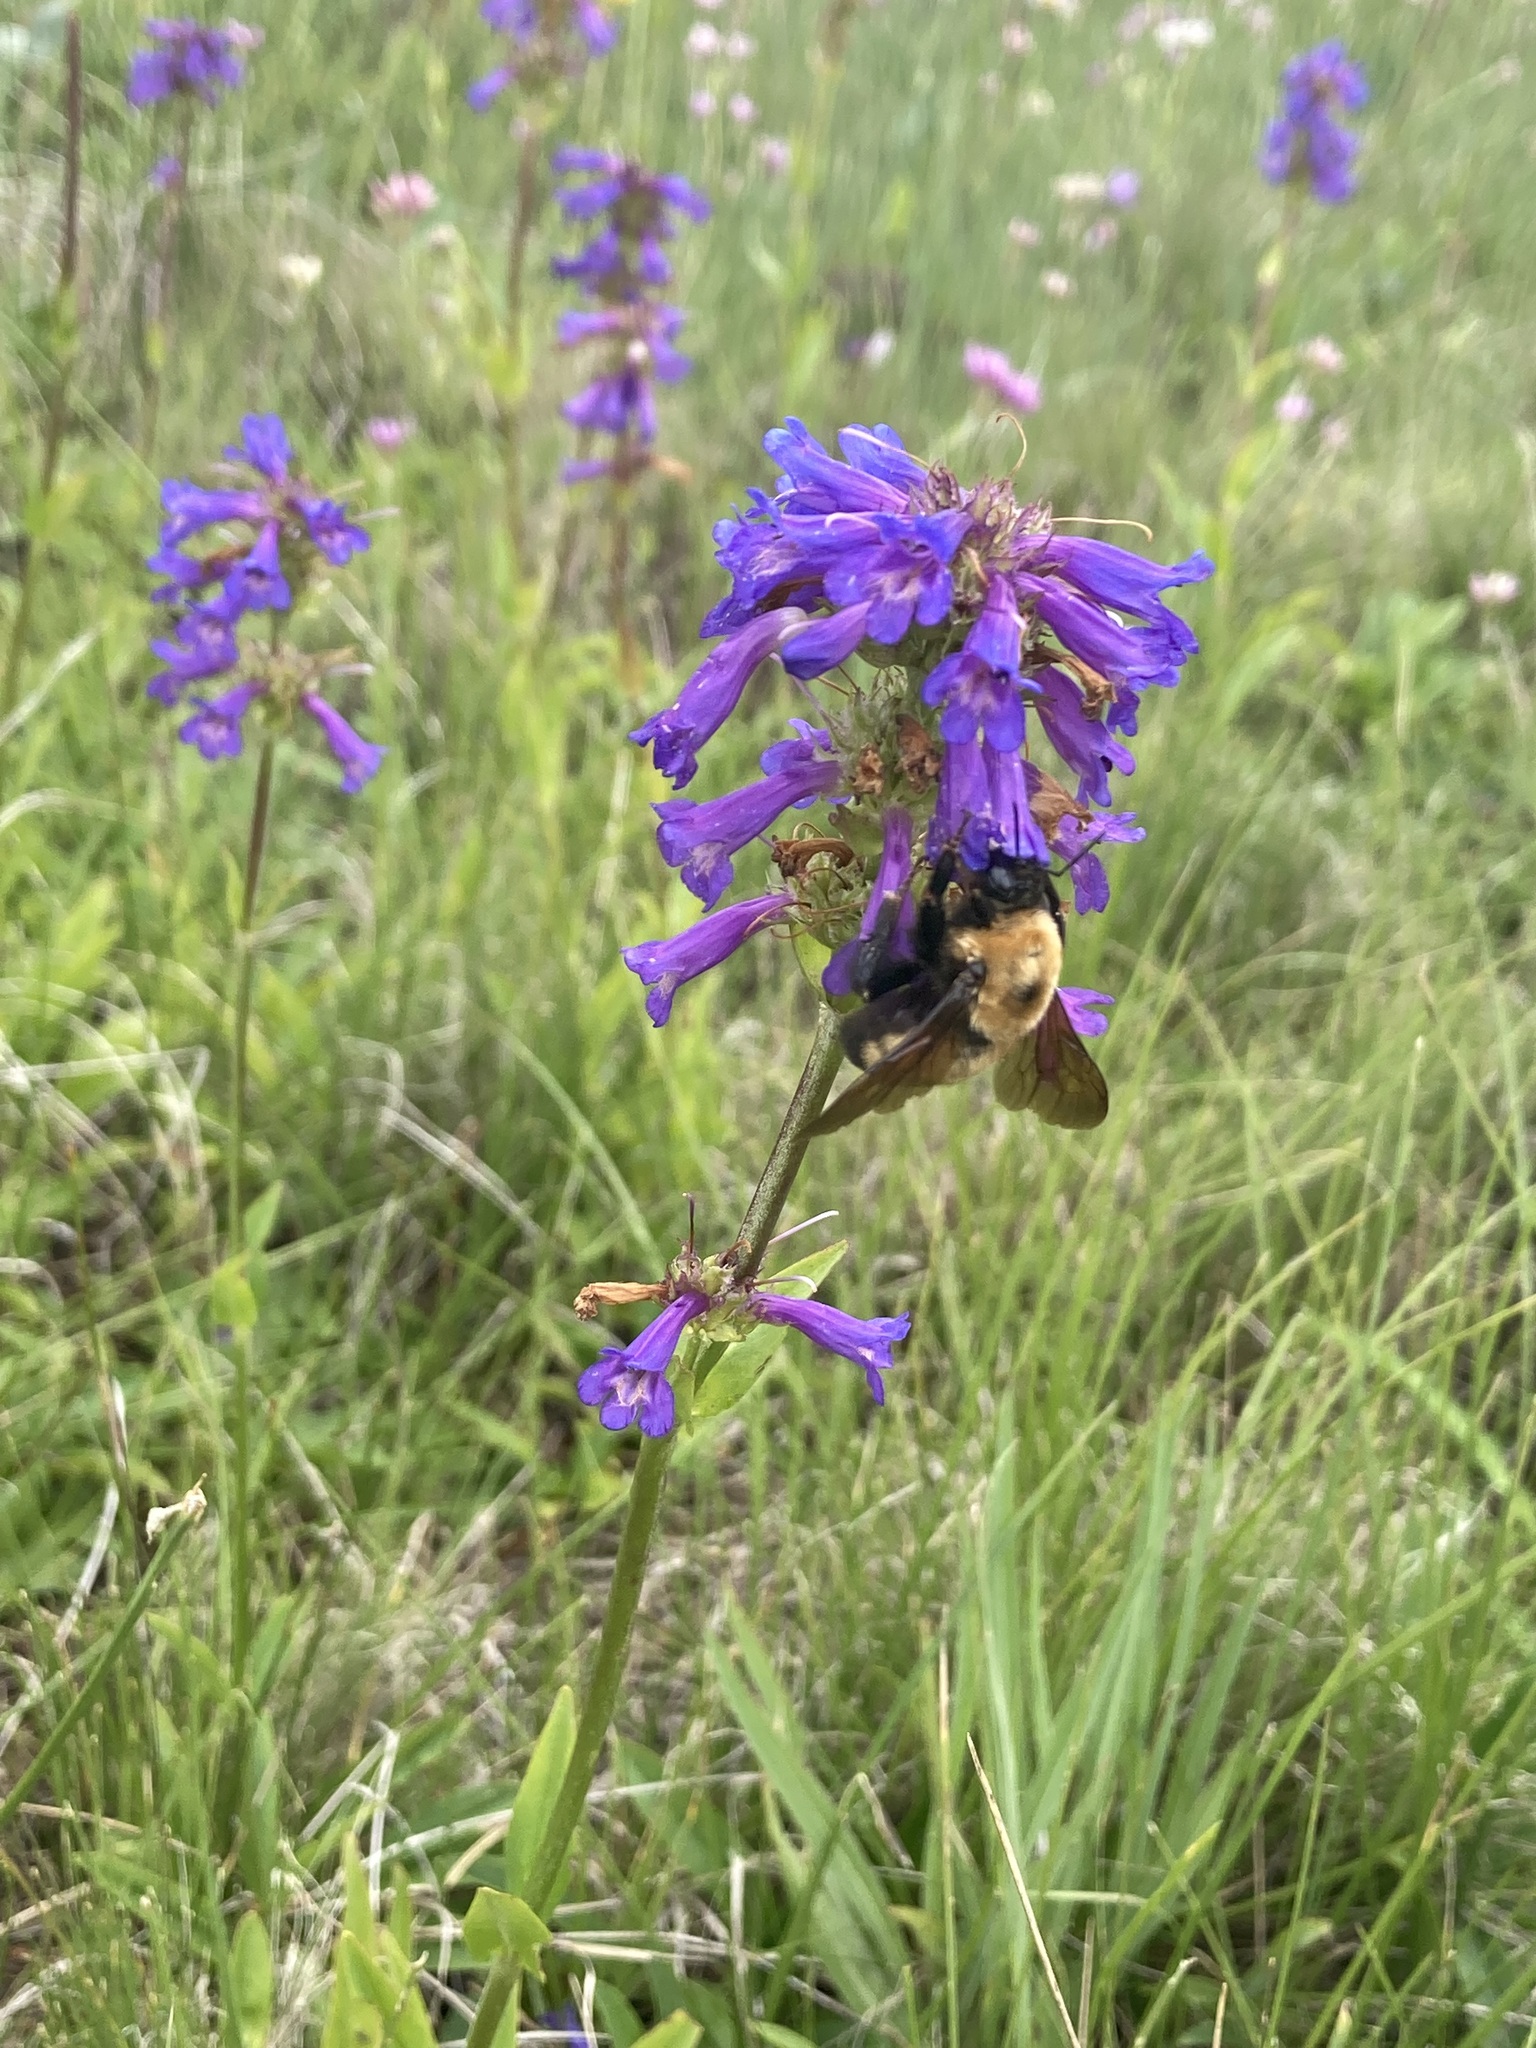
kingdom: Animalia
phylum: Arthropoda
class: Insecta
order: Hymenoptera
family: Apidae
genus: Bombus
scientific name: Bombus nevadensis
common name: Nevada bumble bee
